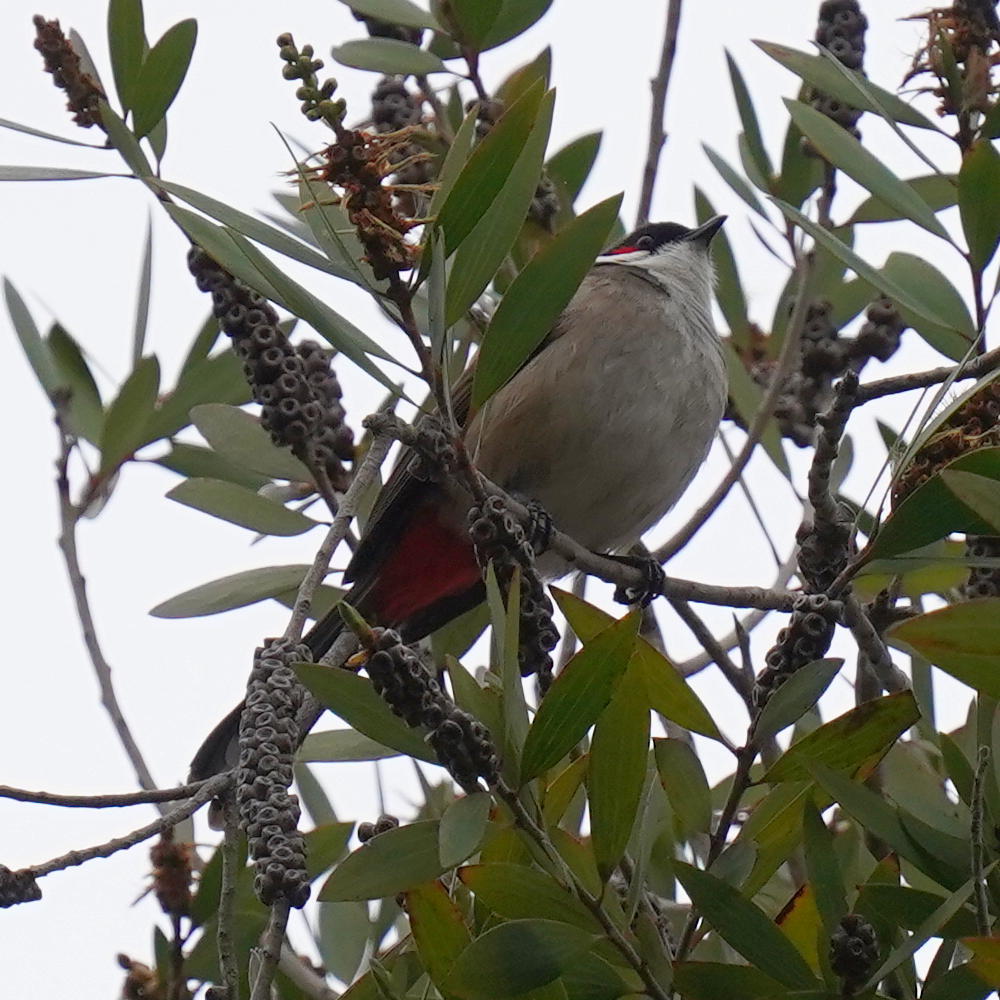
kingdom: Animalia
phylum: Chordata
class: Aves
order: Passeriformes
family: Pycnonotidae
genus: Pycnonotus
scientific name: Pycnonotus jocosus
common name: Red-whiskered bulbul
